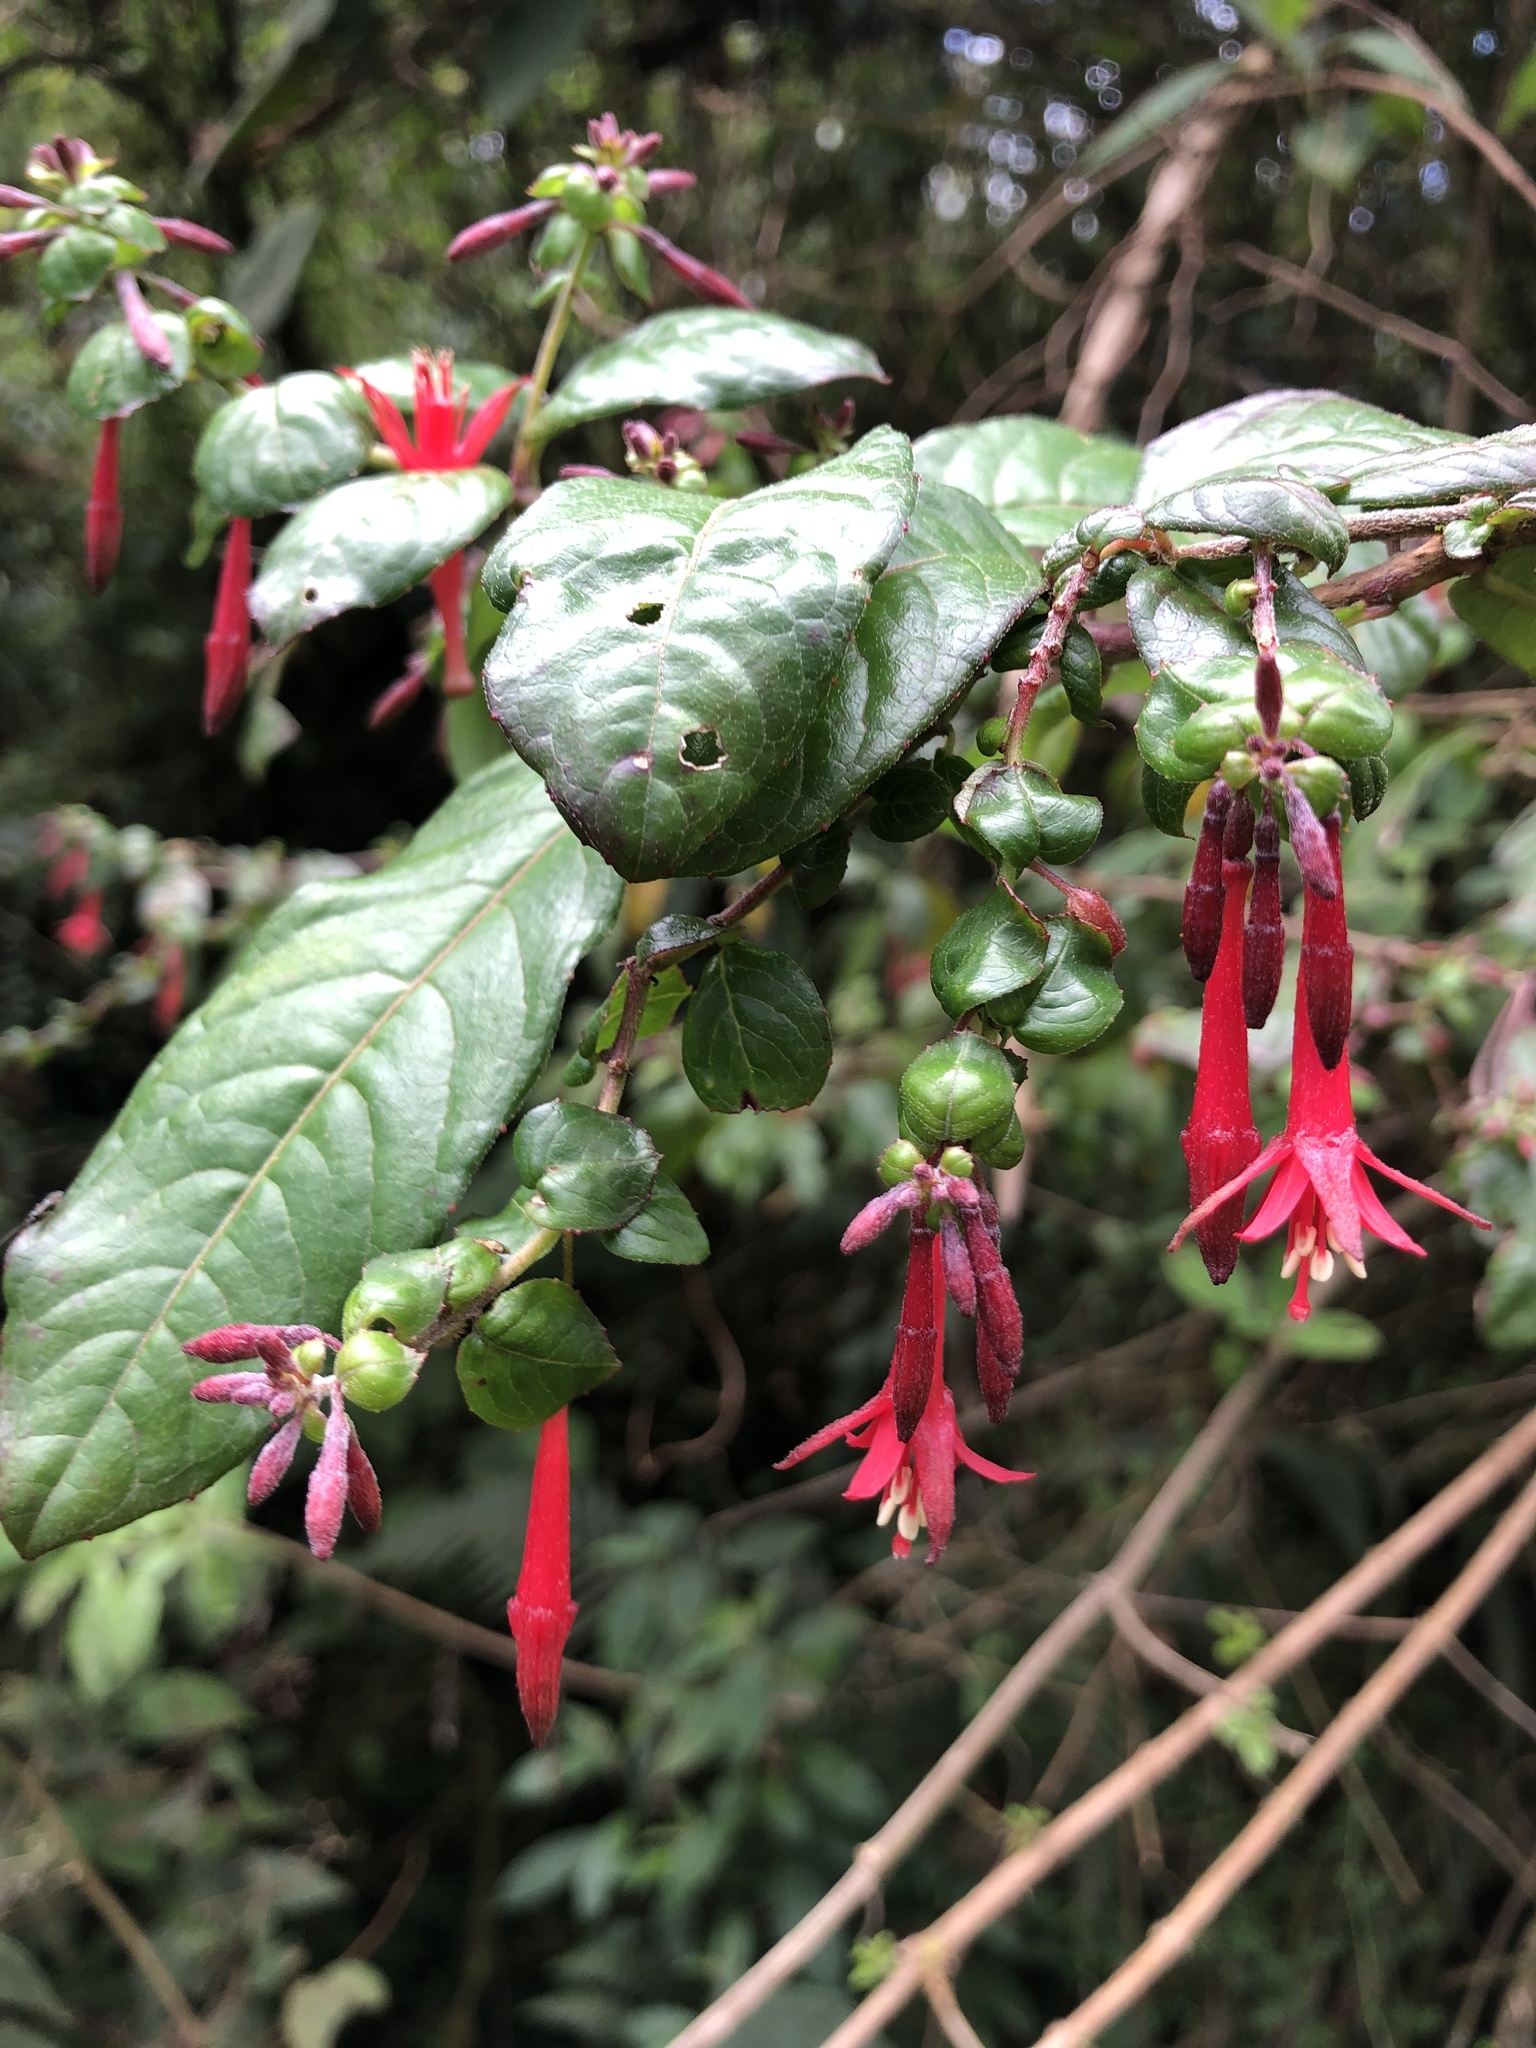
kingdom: Plantae
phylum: Tracheophyta
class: Magnoliopsida
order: Myrtales
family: Onagraceae
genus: Fuchsia
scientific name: Fuchsia crassistipula
